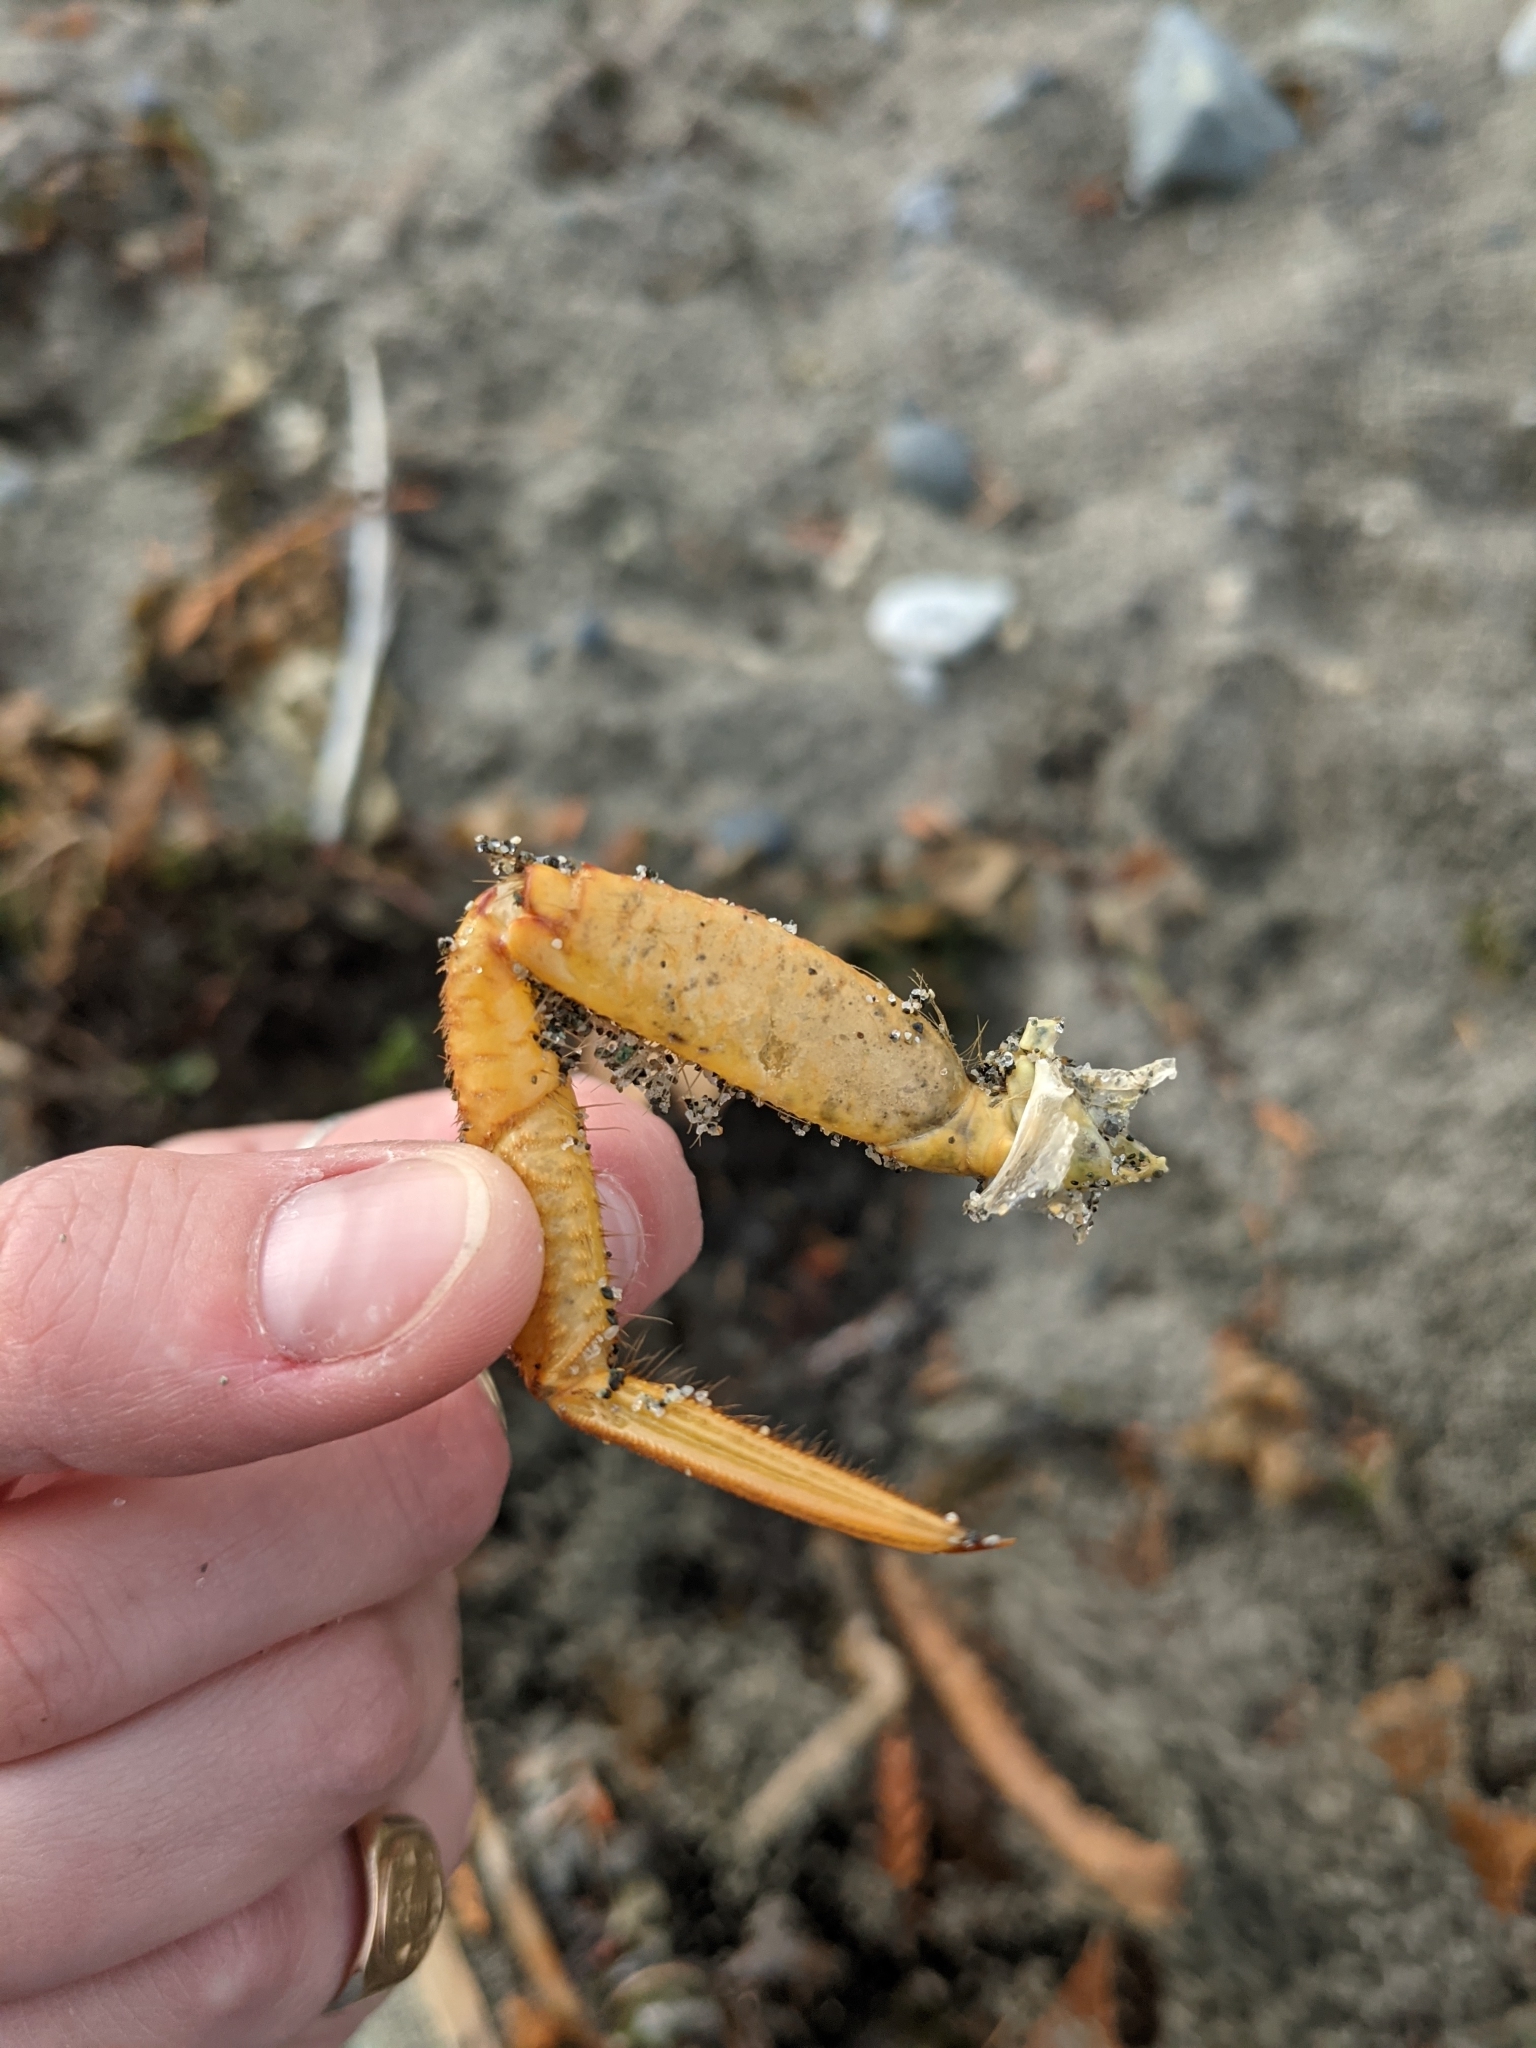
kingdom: Animalia
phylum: Arthropoda
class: Malacostraca
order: Decapoda
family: Cheiragonidae
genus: Telmessus
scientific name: Telmessus cheiragonus
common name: Helmet crab
